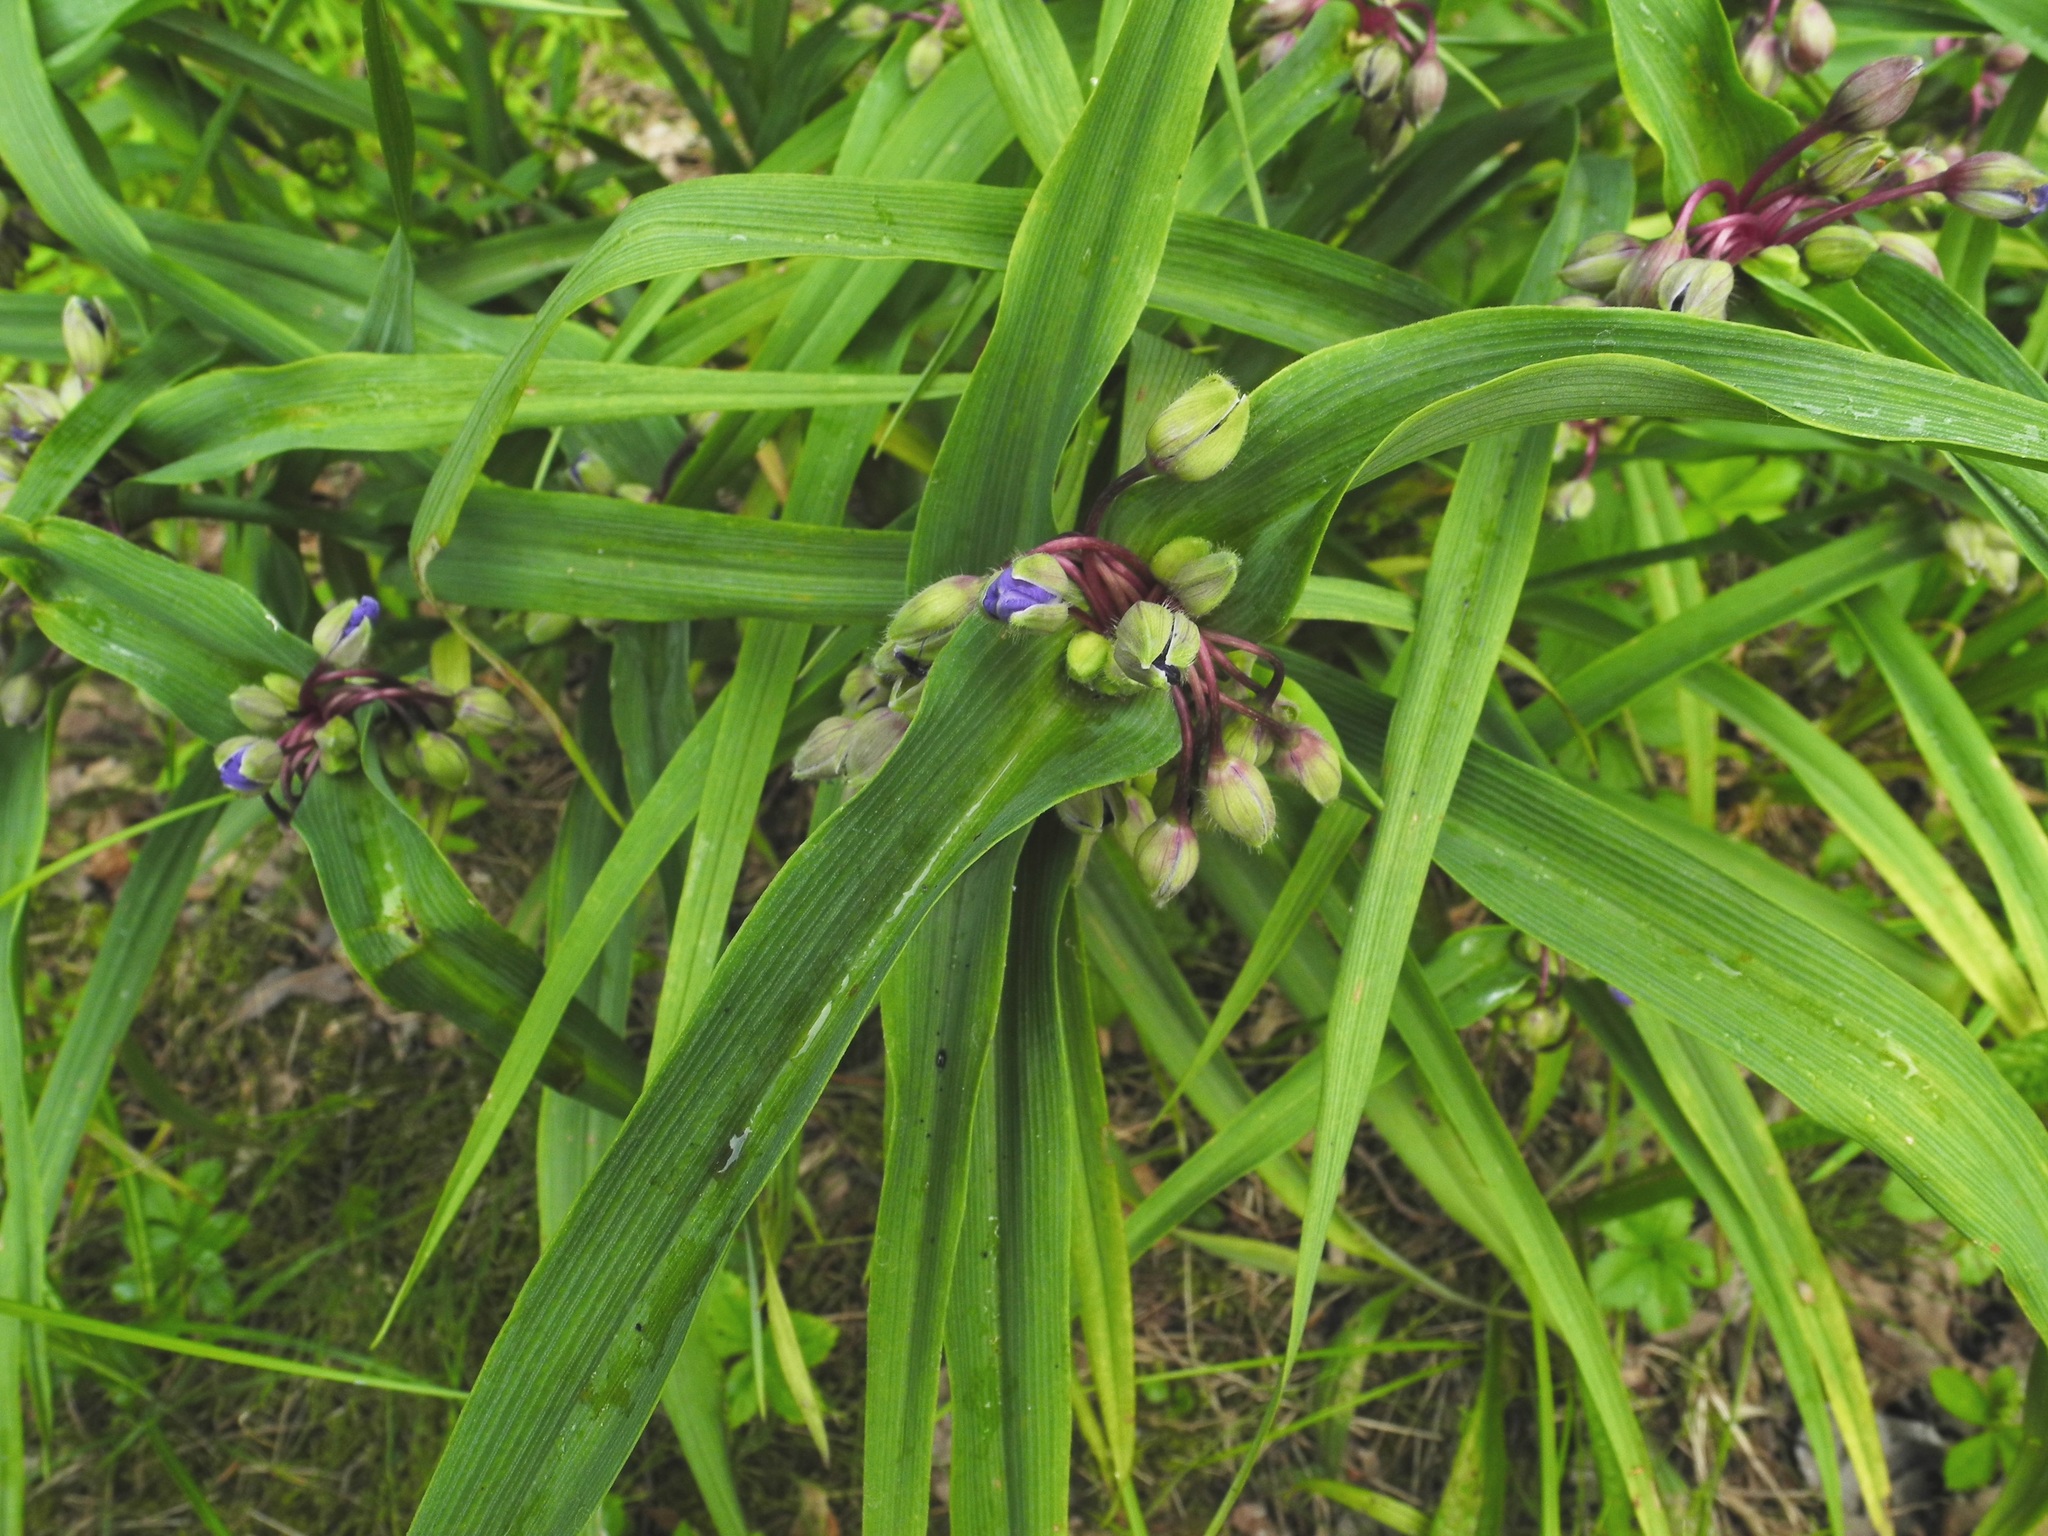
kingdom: Plantae
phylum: Tracheophyta
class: Liliopsida
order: Commelinales
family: Commelinaceae
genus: Tradescantia
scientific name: Tradescantia virginiana
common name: Spiderwort
